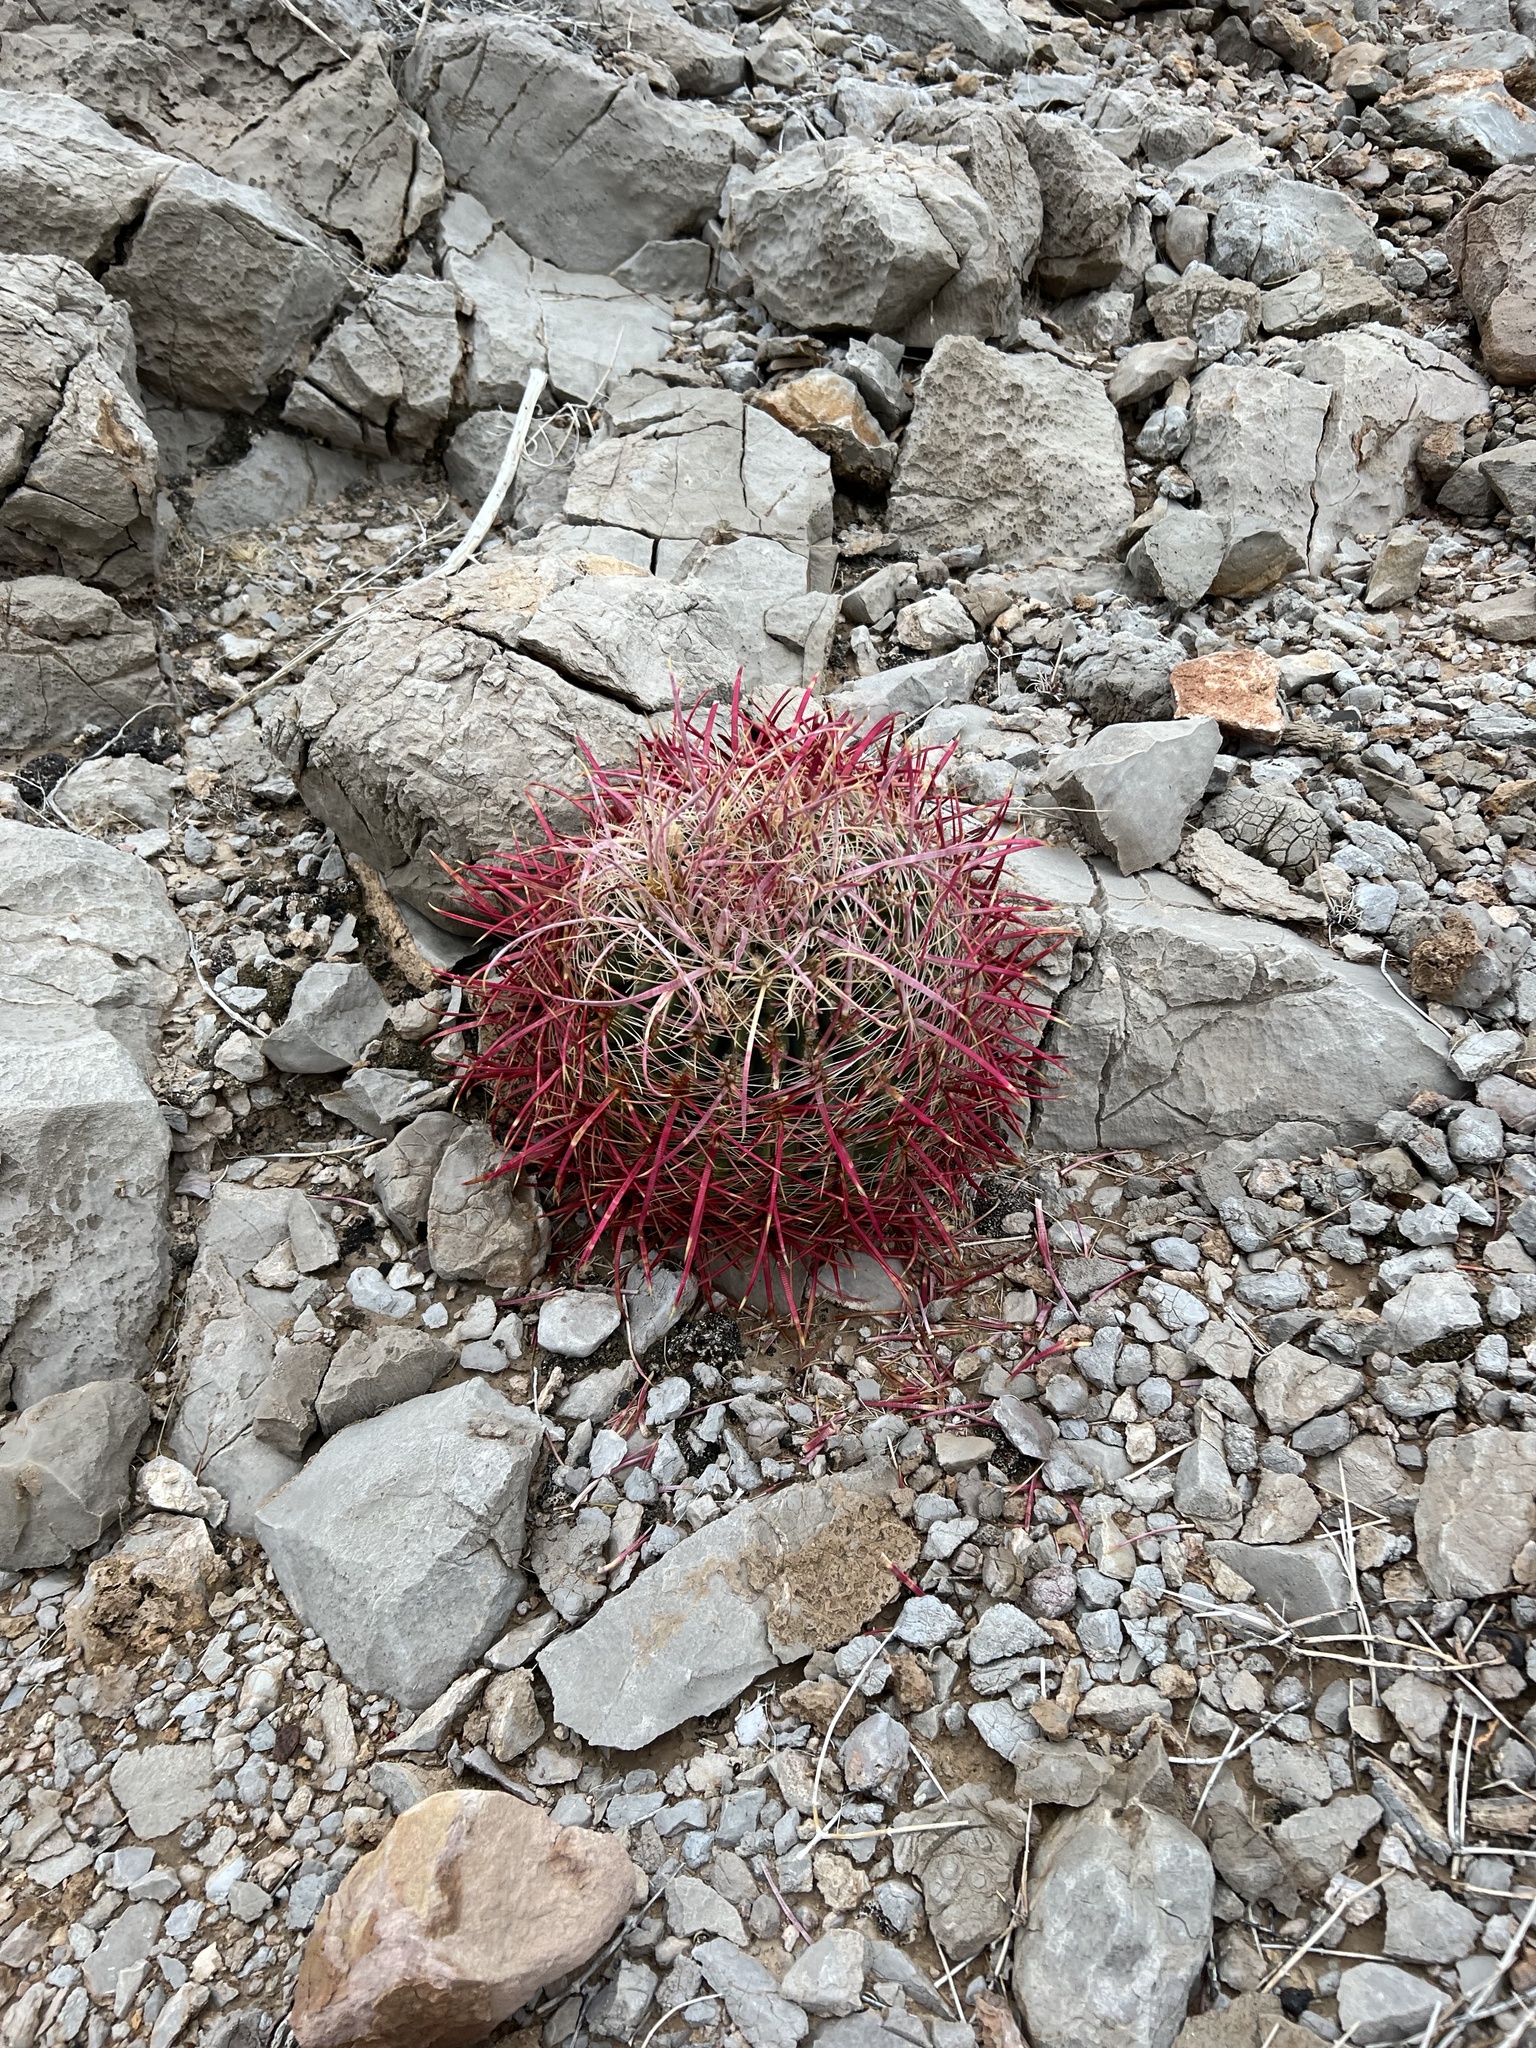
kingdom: Plantae
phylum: Tracheophyta
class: Magnoliopsida
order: Caryophyllales
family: Cactaceae
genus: Ferocactus
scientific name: Ferocactus cylindraceus
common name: California barrel cactus
